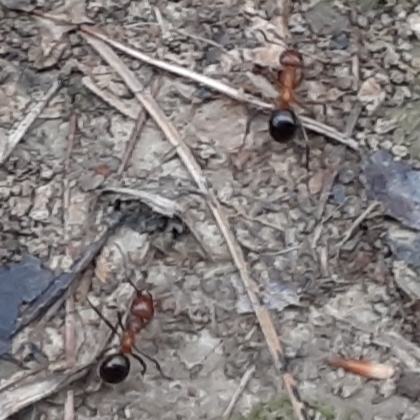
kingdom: Animalia
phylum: Arthropoda
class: Insecta
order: Hymenoptera
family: Formicidae
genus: Formica
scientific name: Formica exsectoides
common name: Allegheny mound ant
